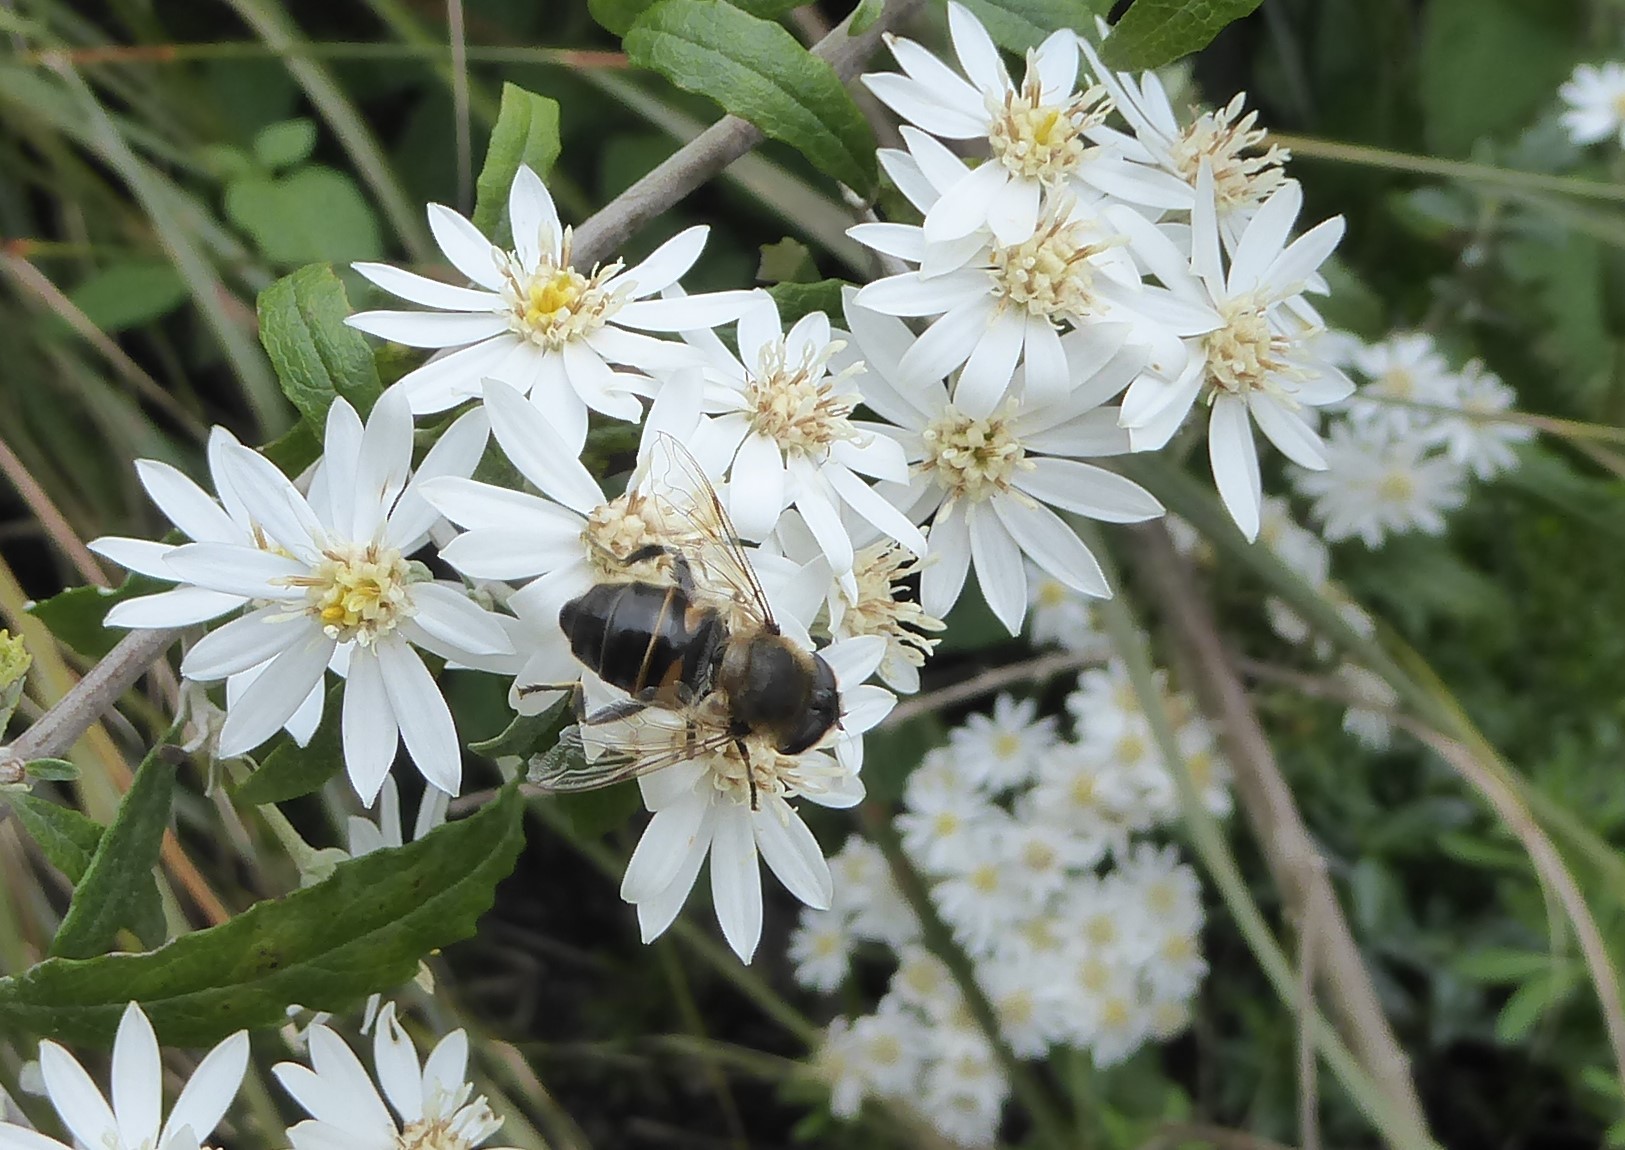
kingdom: Animalia
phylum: Arthropoda
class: Insecta
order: Diptera
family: Syrphidae
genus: Eristalis
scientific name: Eristalis tenax
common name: Drone fly
